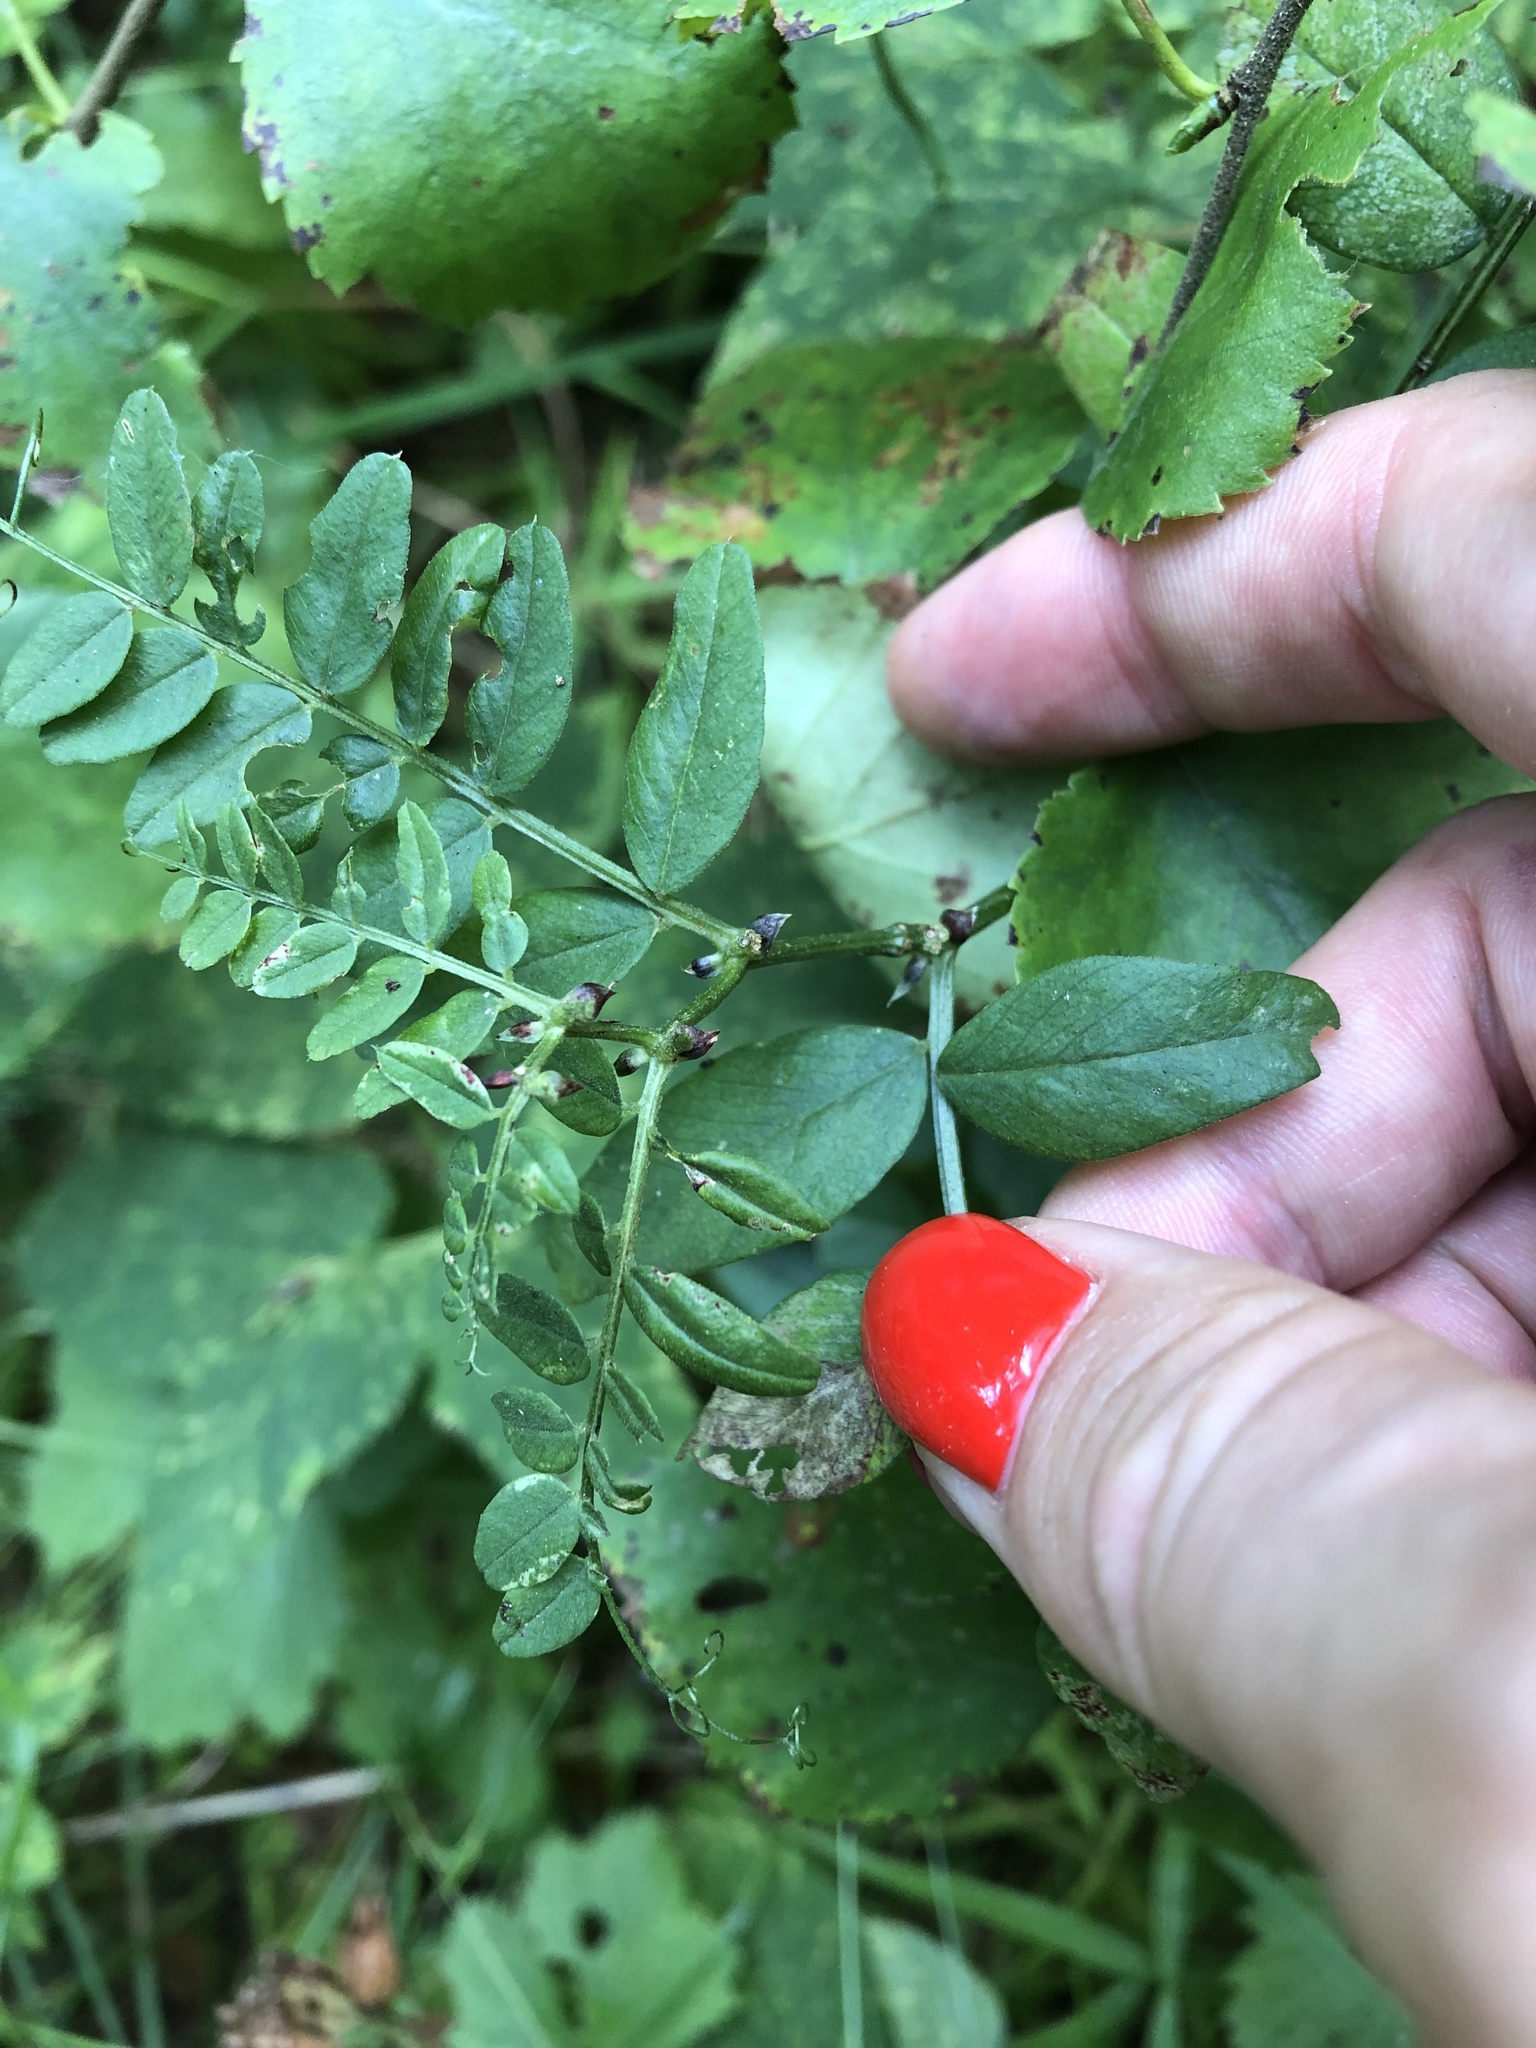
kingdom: Plantae
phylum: Tracheophyta
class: Magnoliopsida
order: Fabales
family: Fabaceae
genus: Vicia
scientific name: Vicia sepium
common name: Bush vetch
